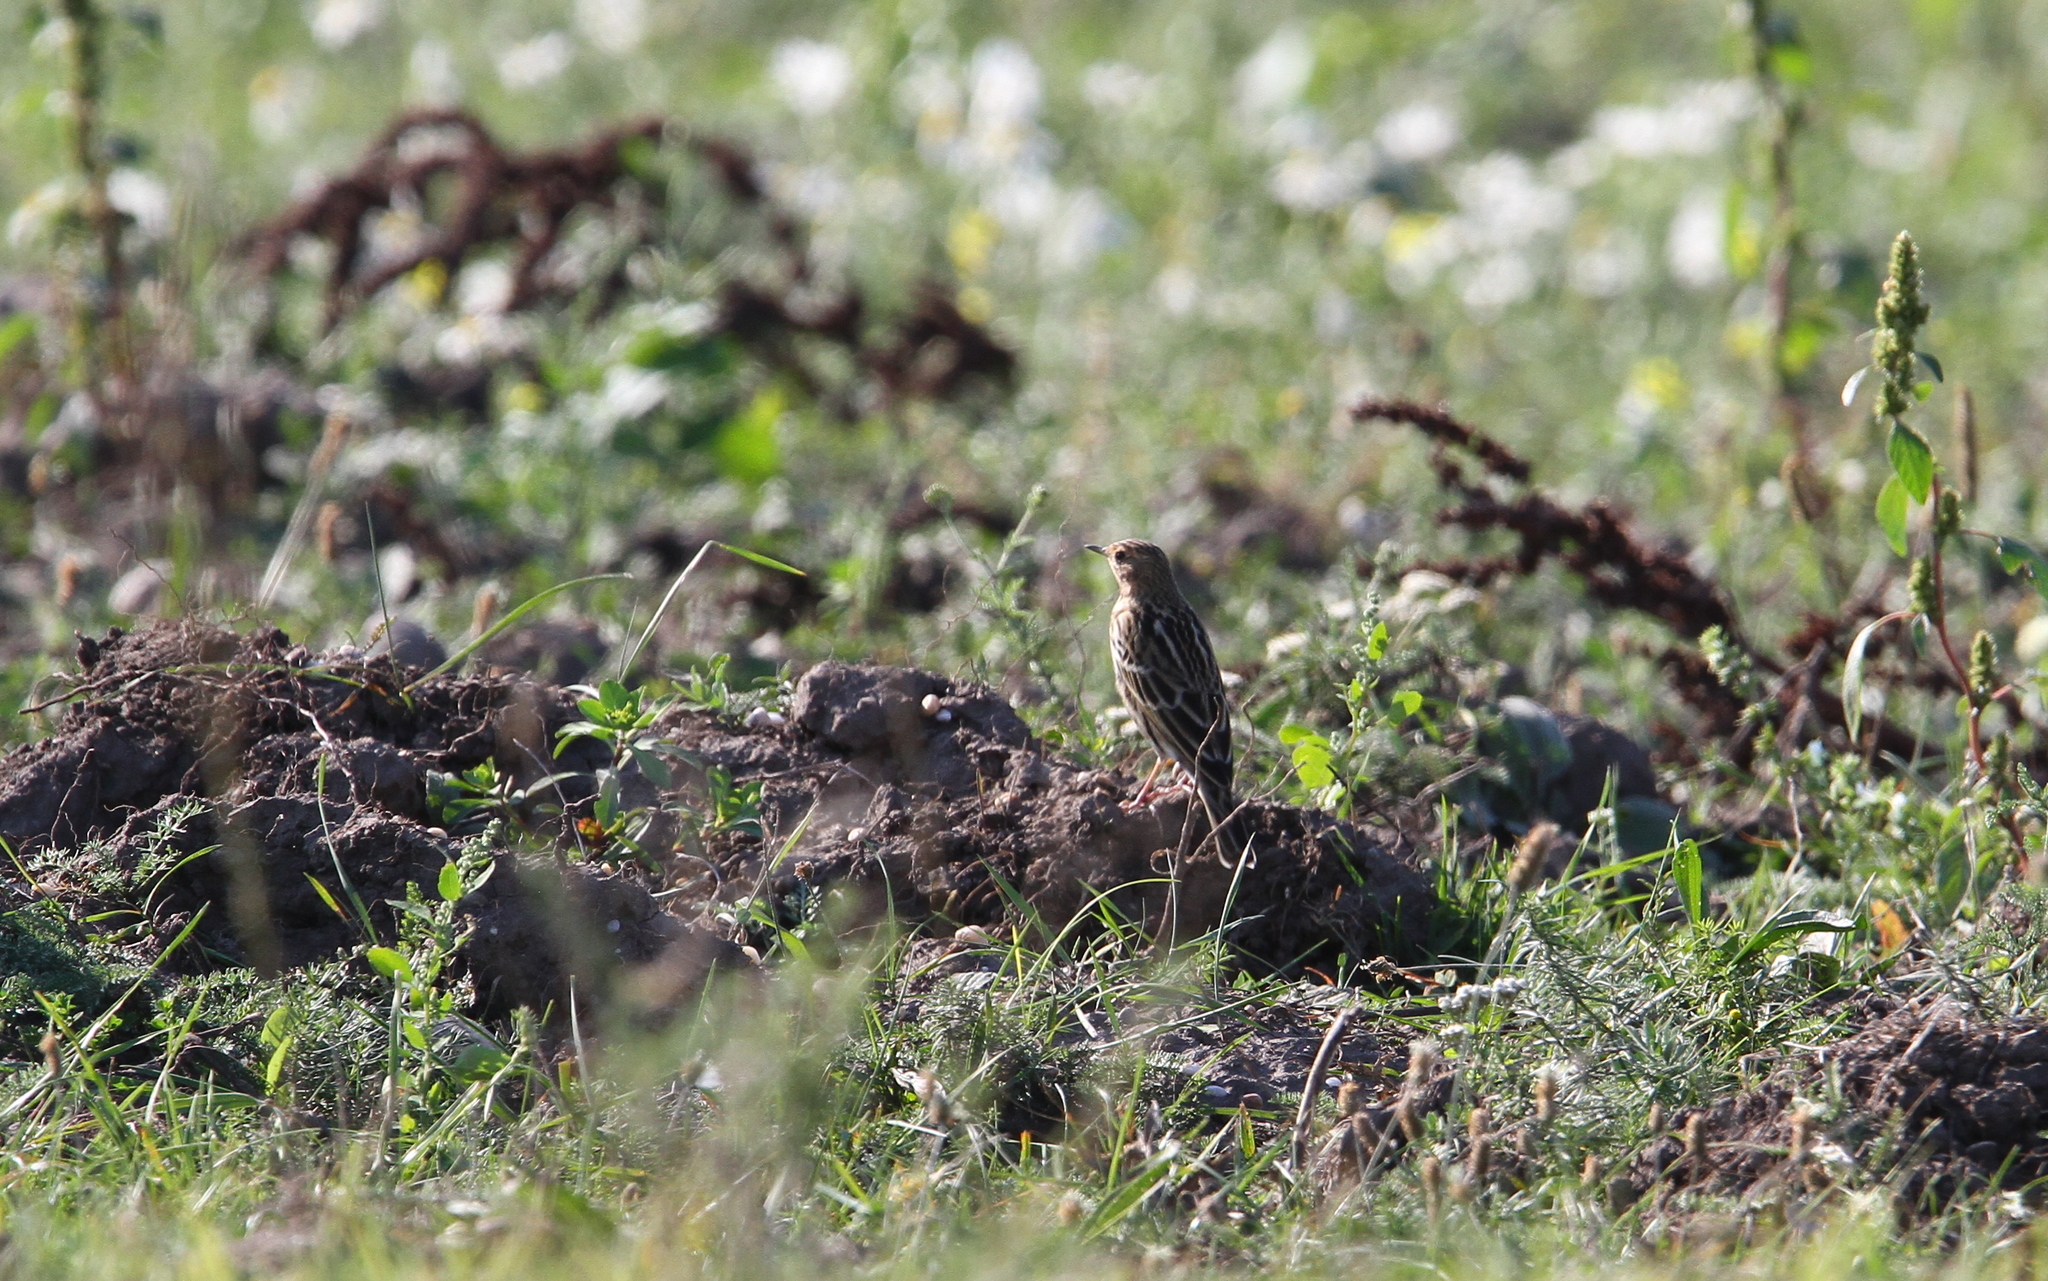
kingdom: Animalia
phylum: Chordata
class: Aves
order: Passeriformes
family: Motacillidae
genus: Anthus
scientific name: Anthus cervinus
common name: Red-throated pipit
